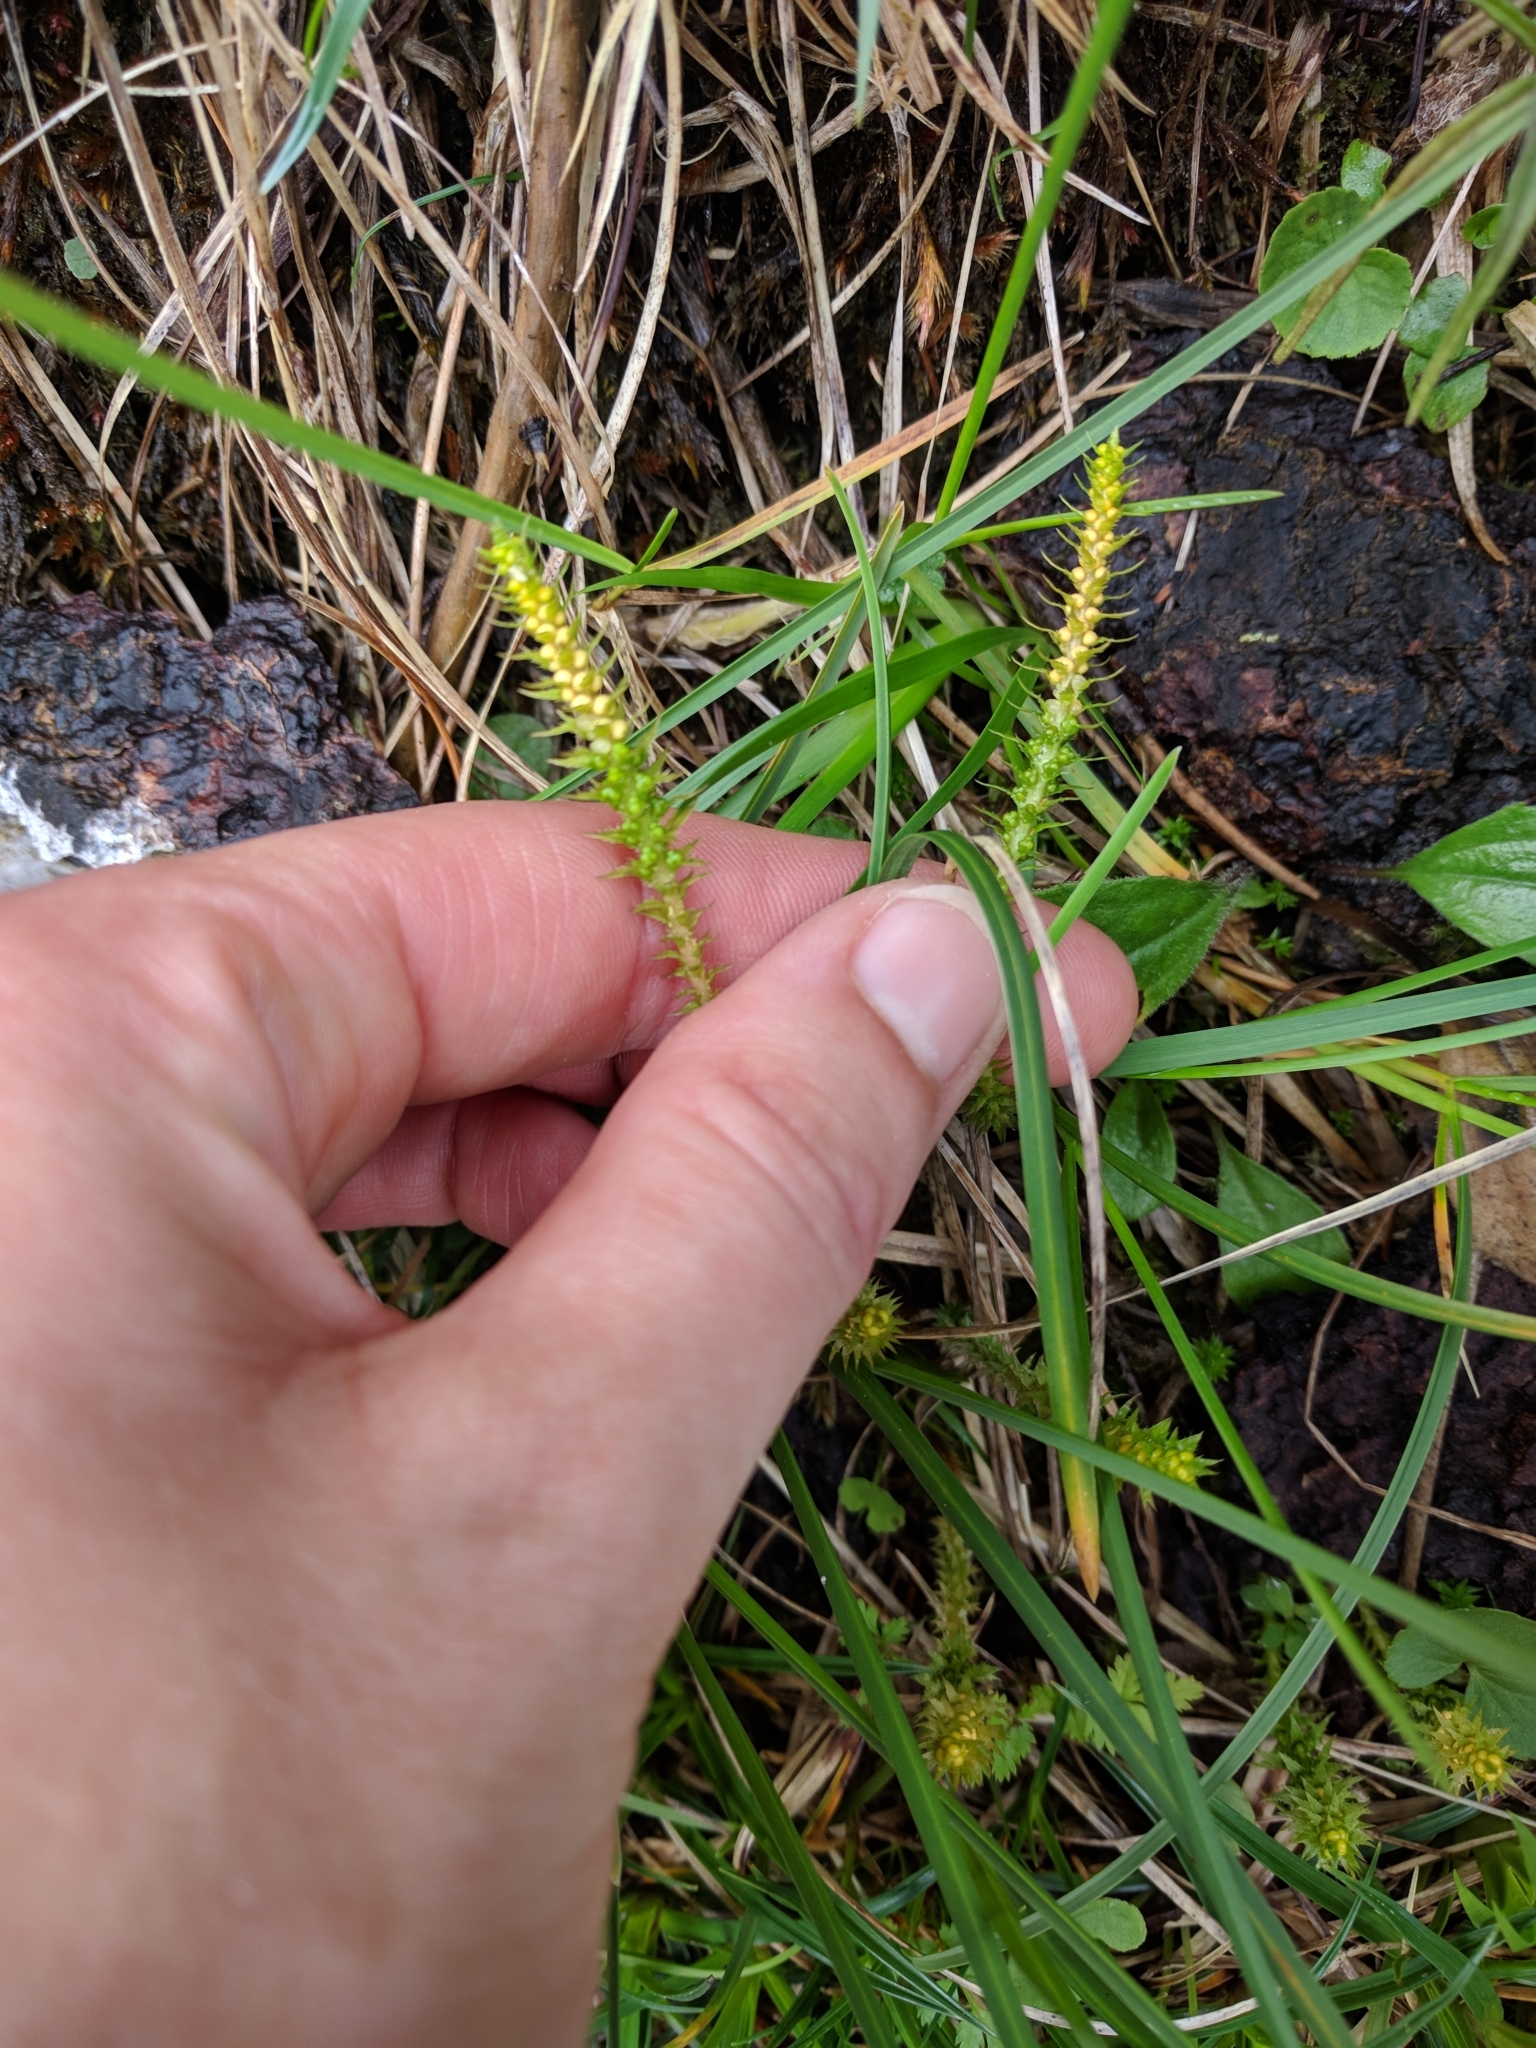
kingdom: Plantae
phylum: Tracheophyta
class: Lycopodiopsida
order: Selaginellales
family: Selaginellaceae
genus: Selaginella
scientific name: Selaginella selaginoides
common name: Prickly mountain-moss
